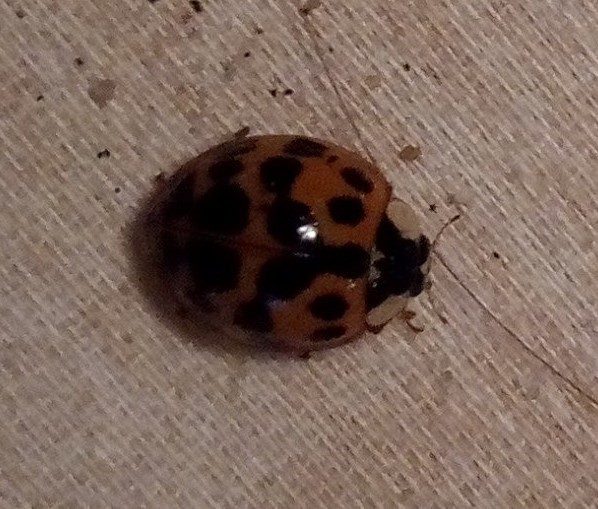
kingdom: Animalia
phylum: Arthropoda
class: Insecta
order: Coleoptera
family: Coccinellidae
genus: Harmonia
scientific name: Harmonia axyridis
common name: Harlequin ladybird
